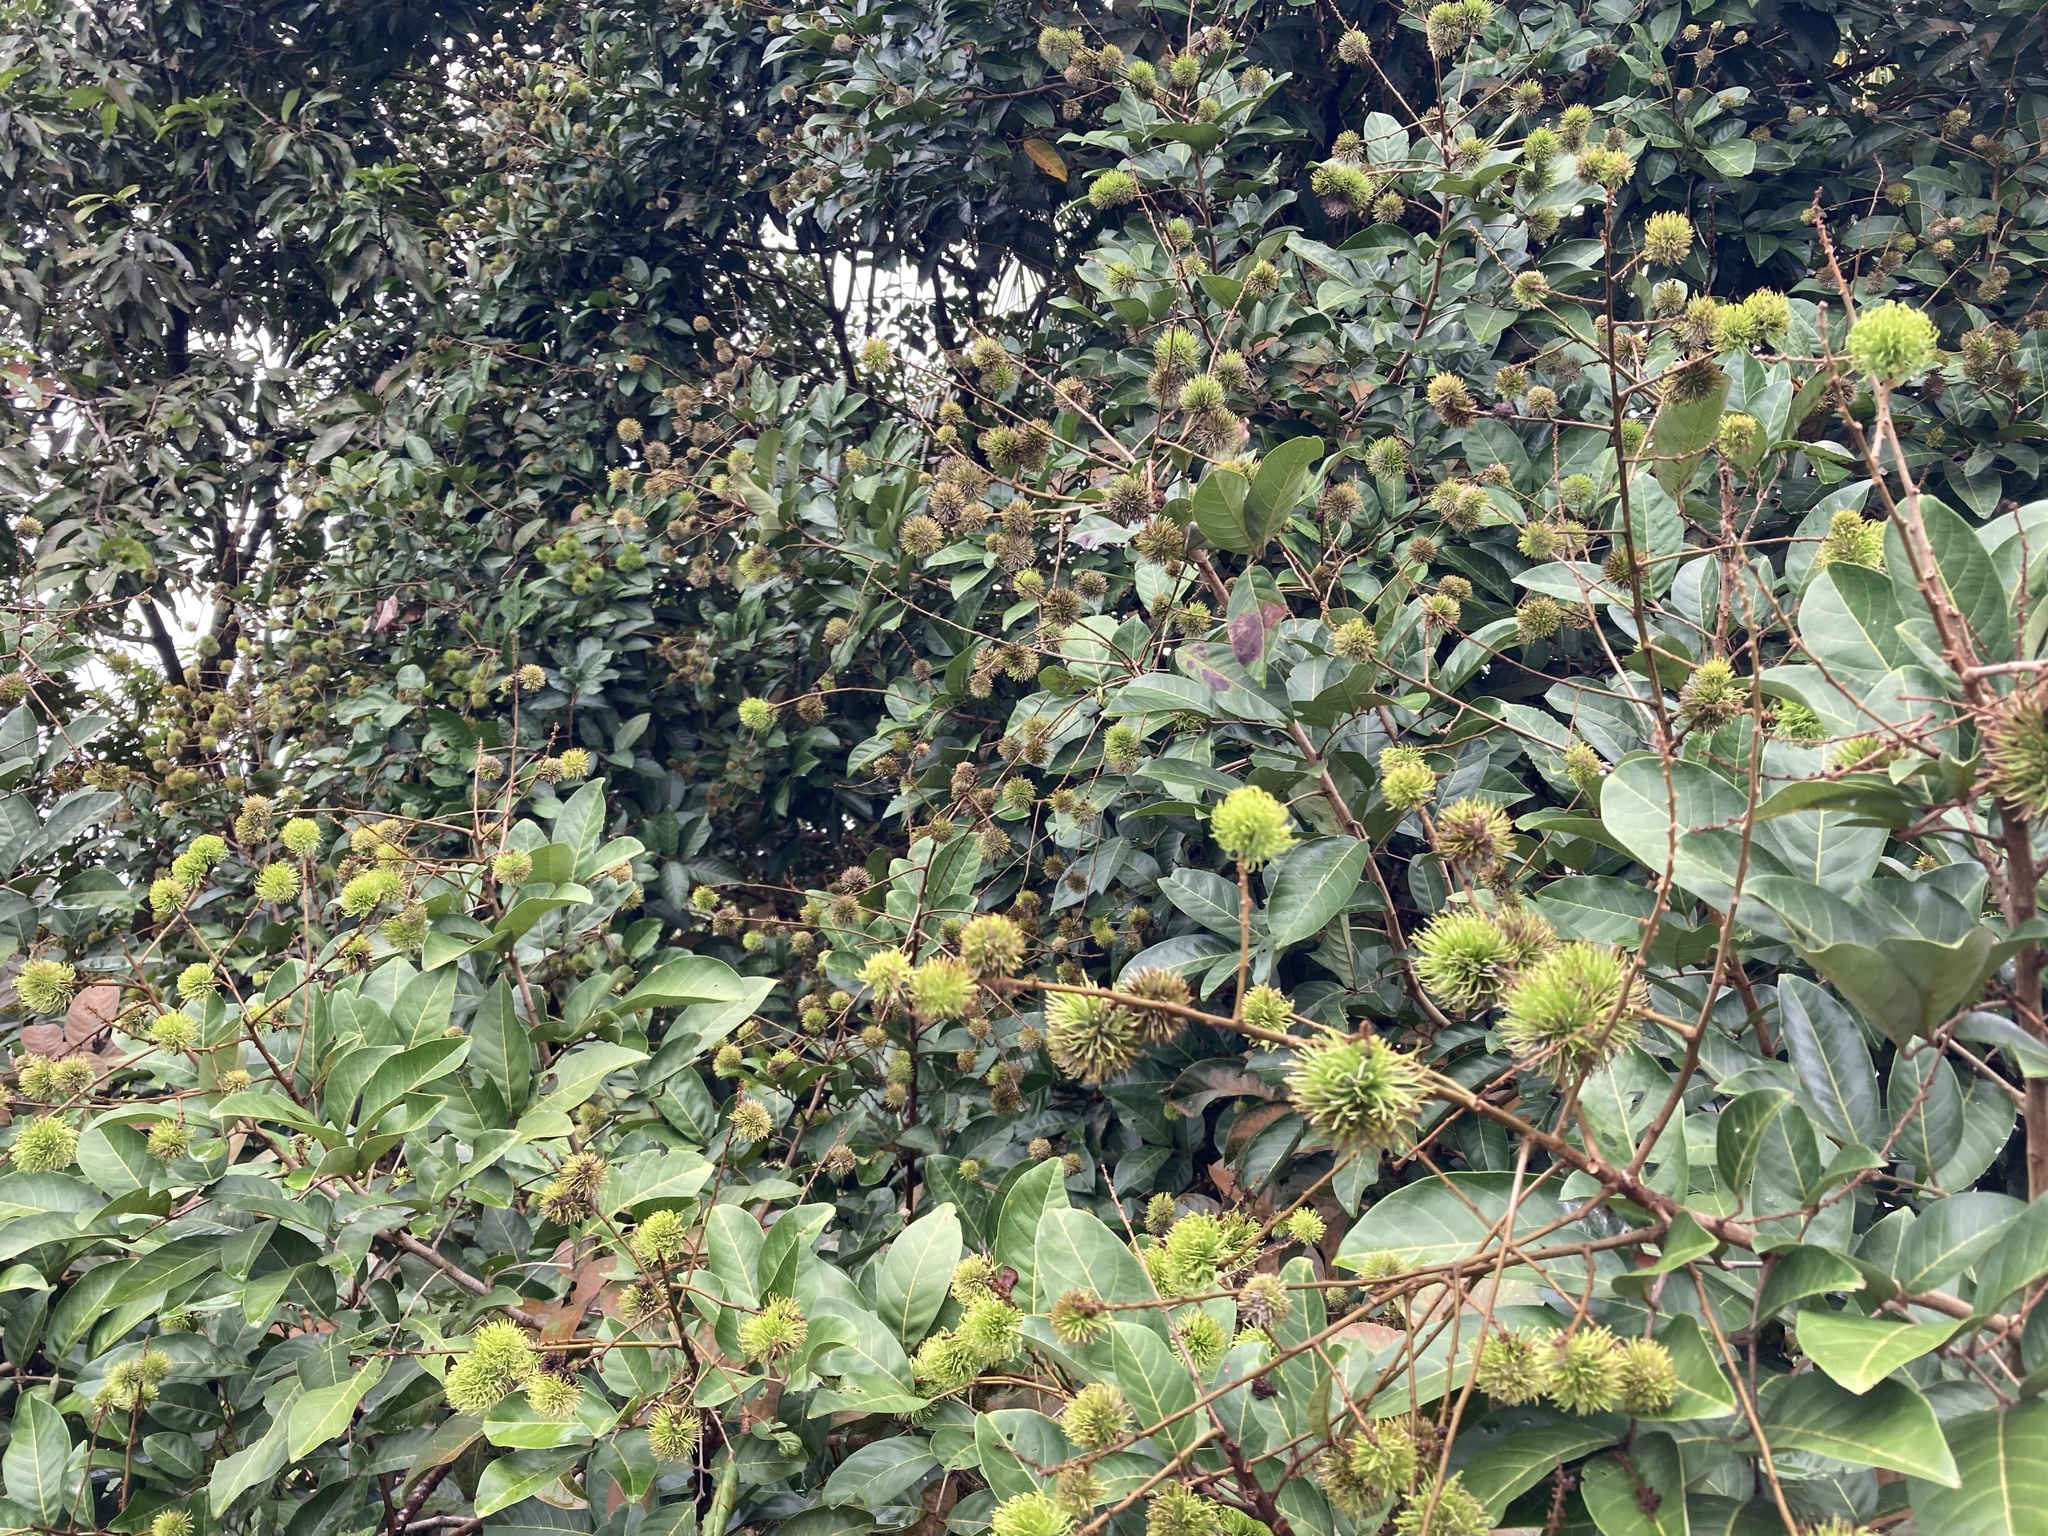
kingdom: Plantae
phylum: Tracheophyta
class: Magnoliopsida
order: Sapindales
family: Sapindaceae
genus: Nephelium
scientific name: Nephelium lappaceum
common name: Rambutan
